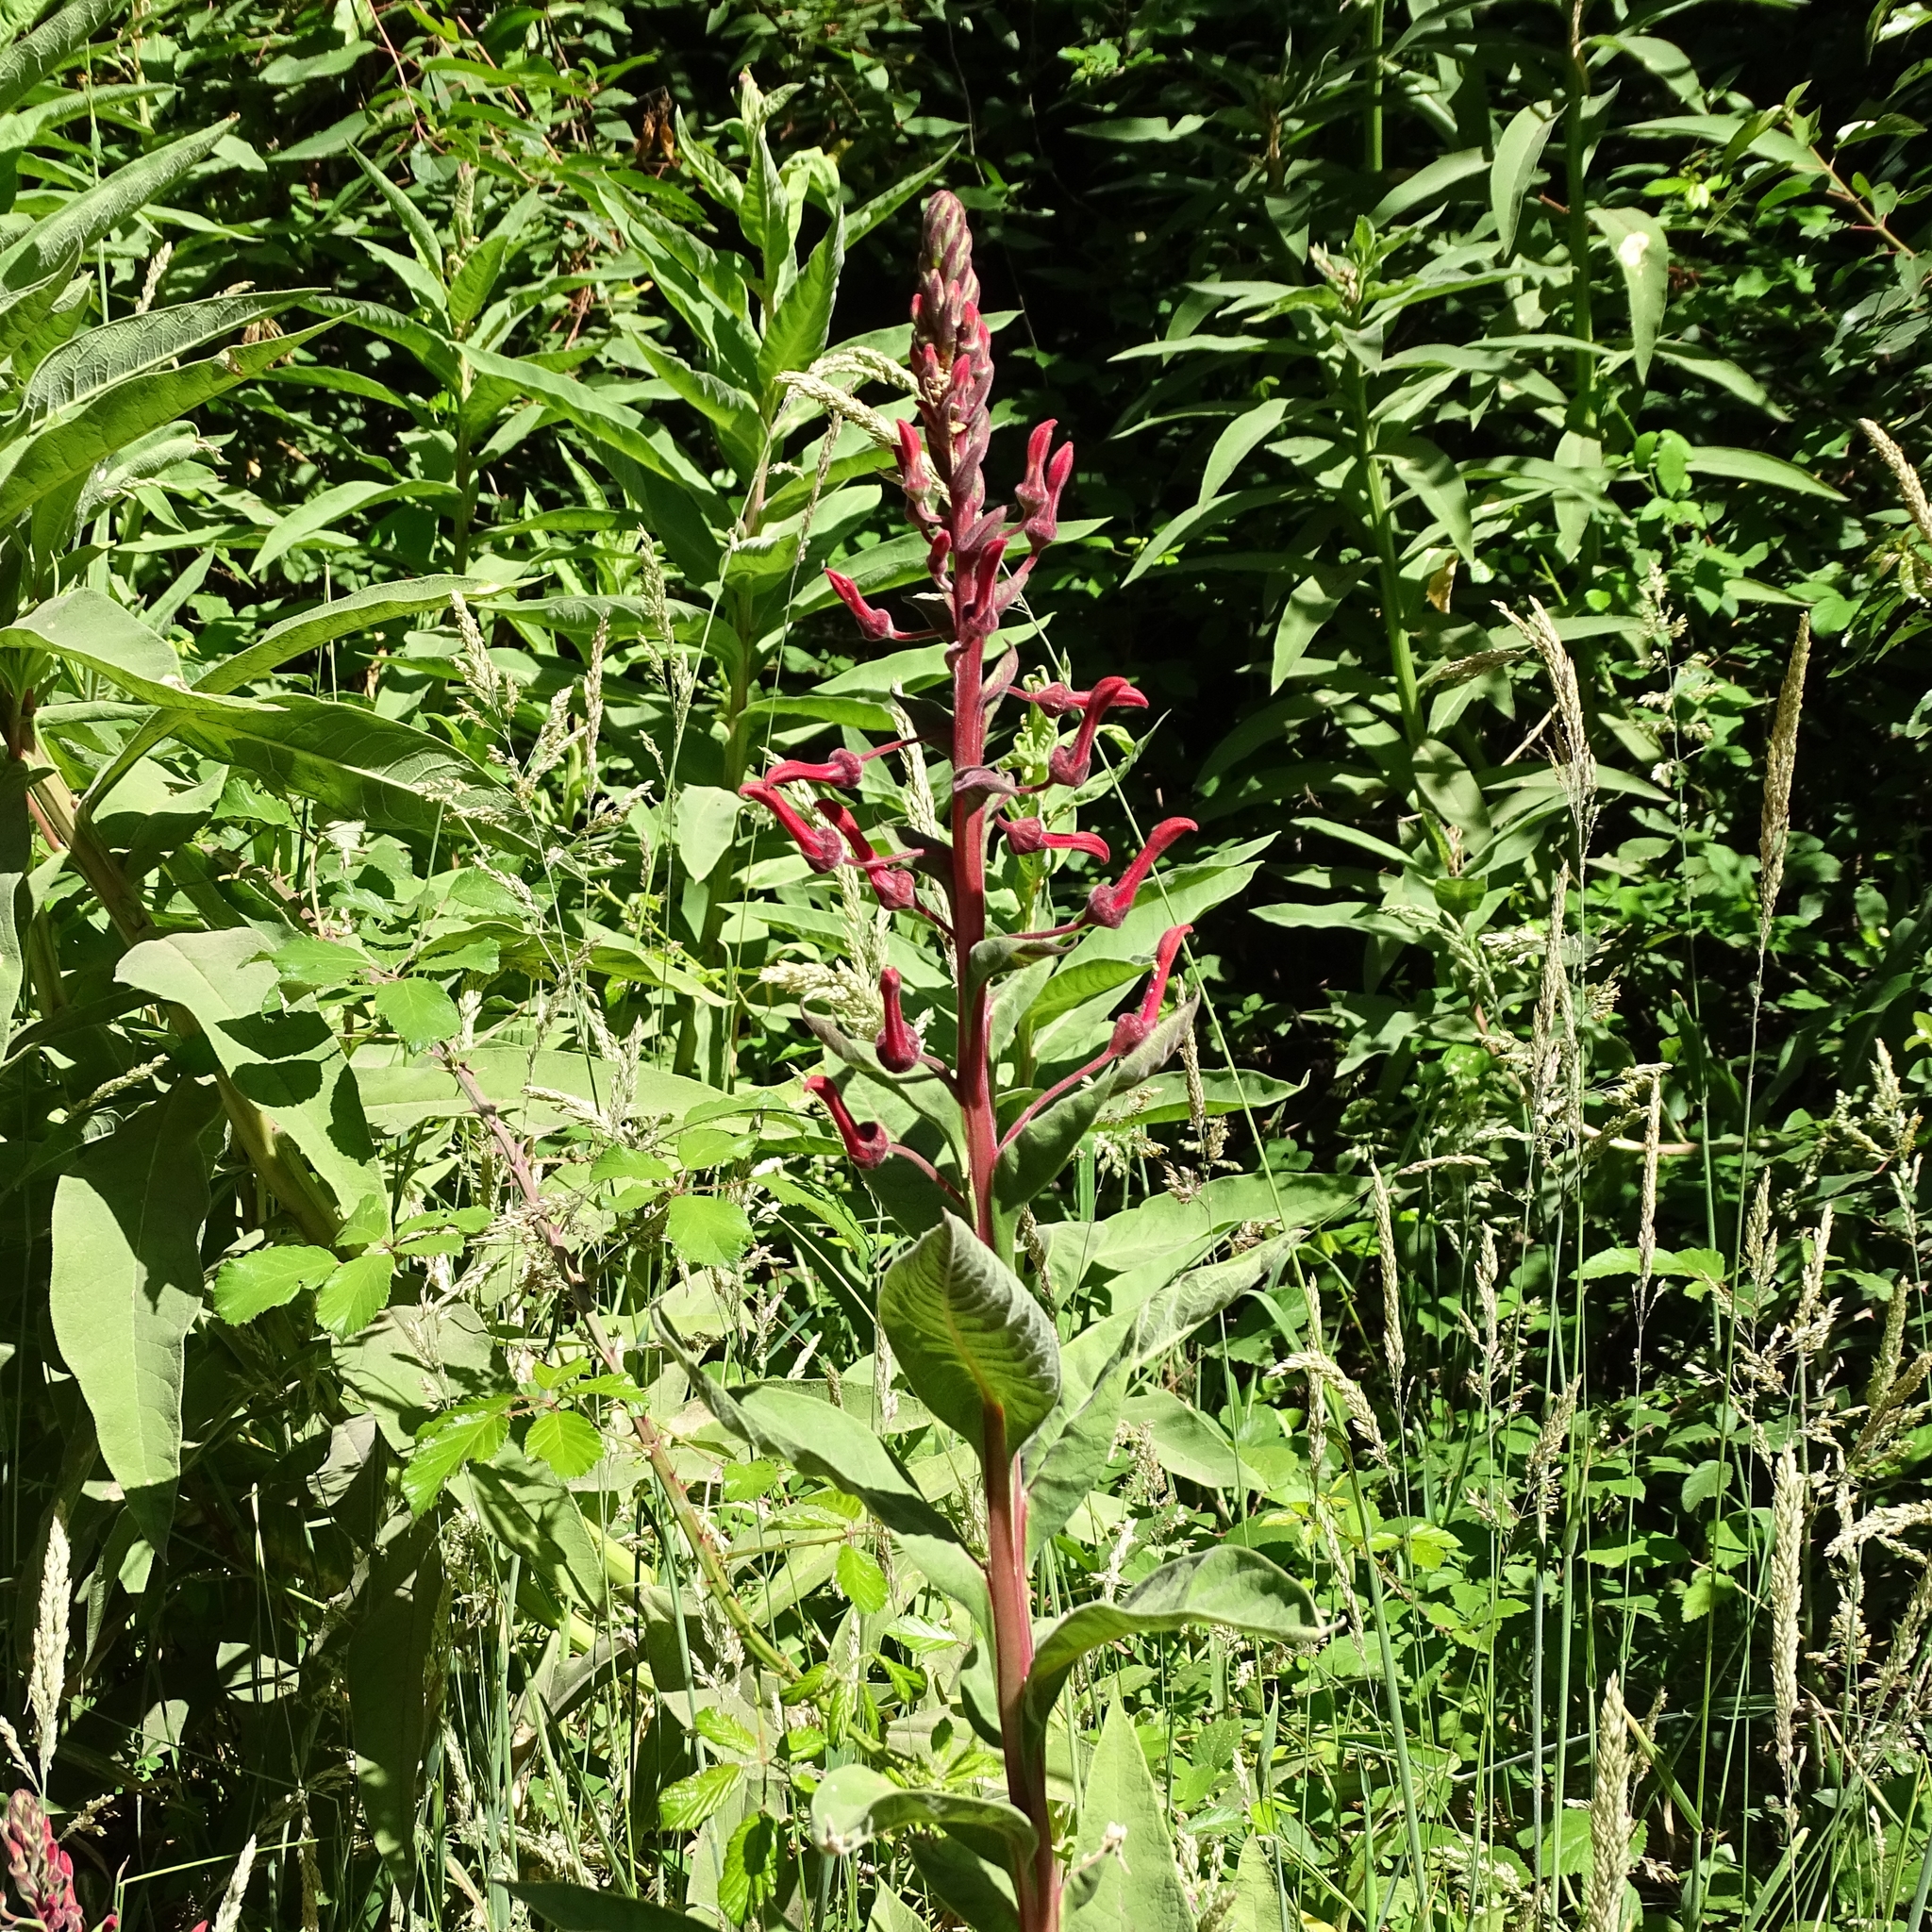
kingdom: Plantae
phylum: Tracheophyta
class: Magnoliopsida
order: Asterales
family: Campanulaceae
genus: Lobelia
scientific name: Lobelia tupa
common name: Devil's-tobacco
